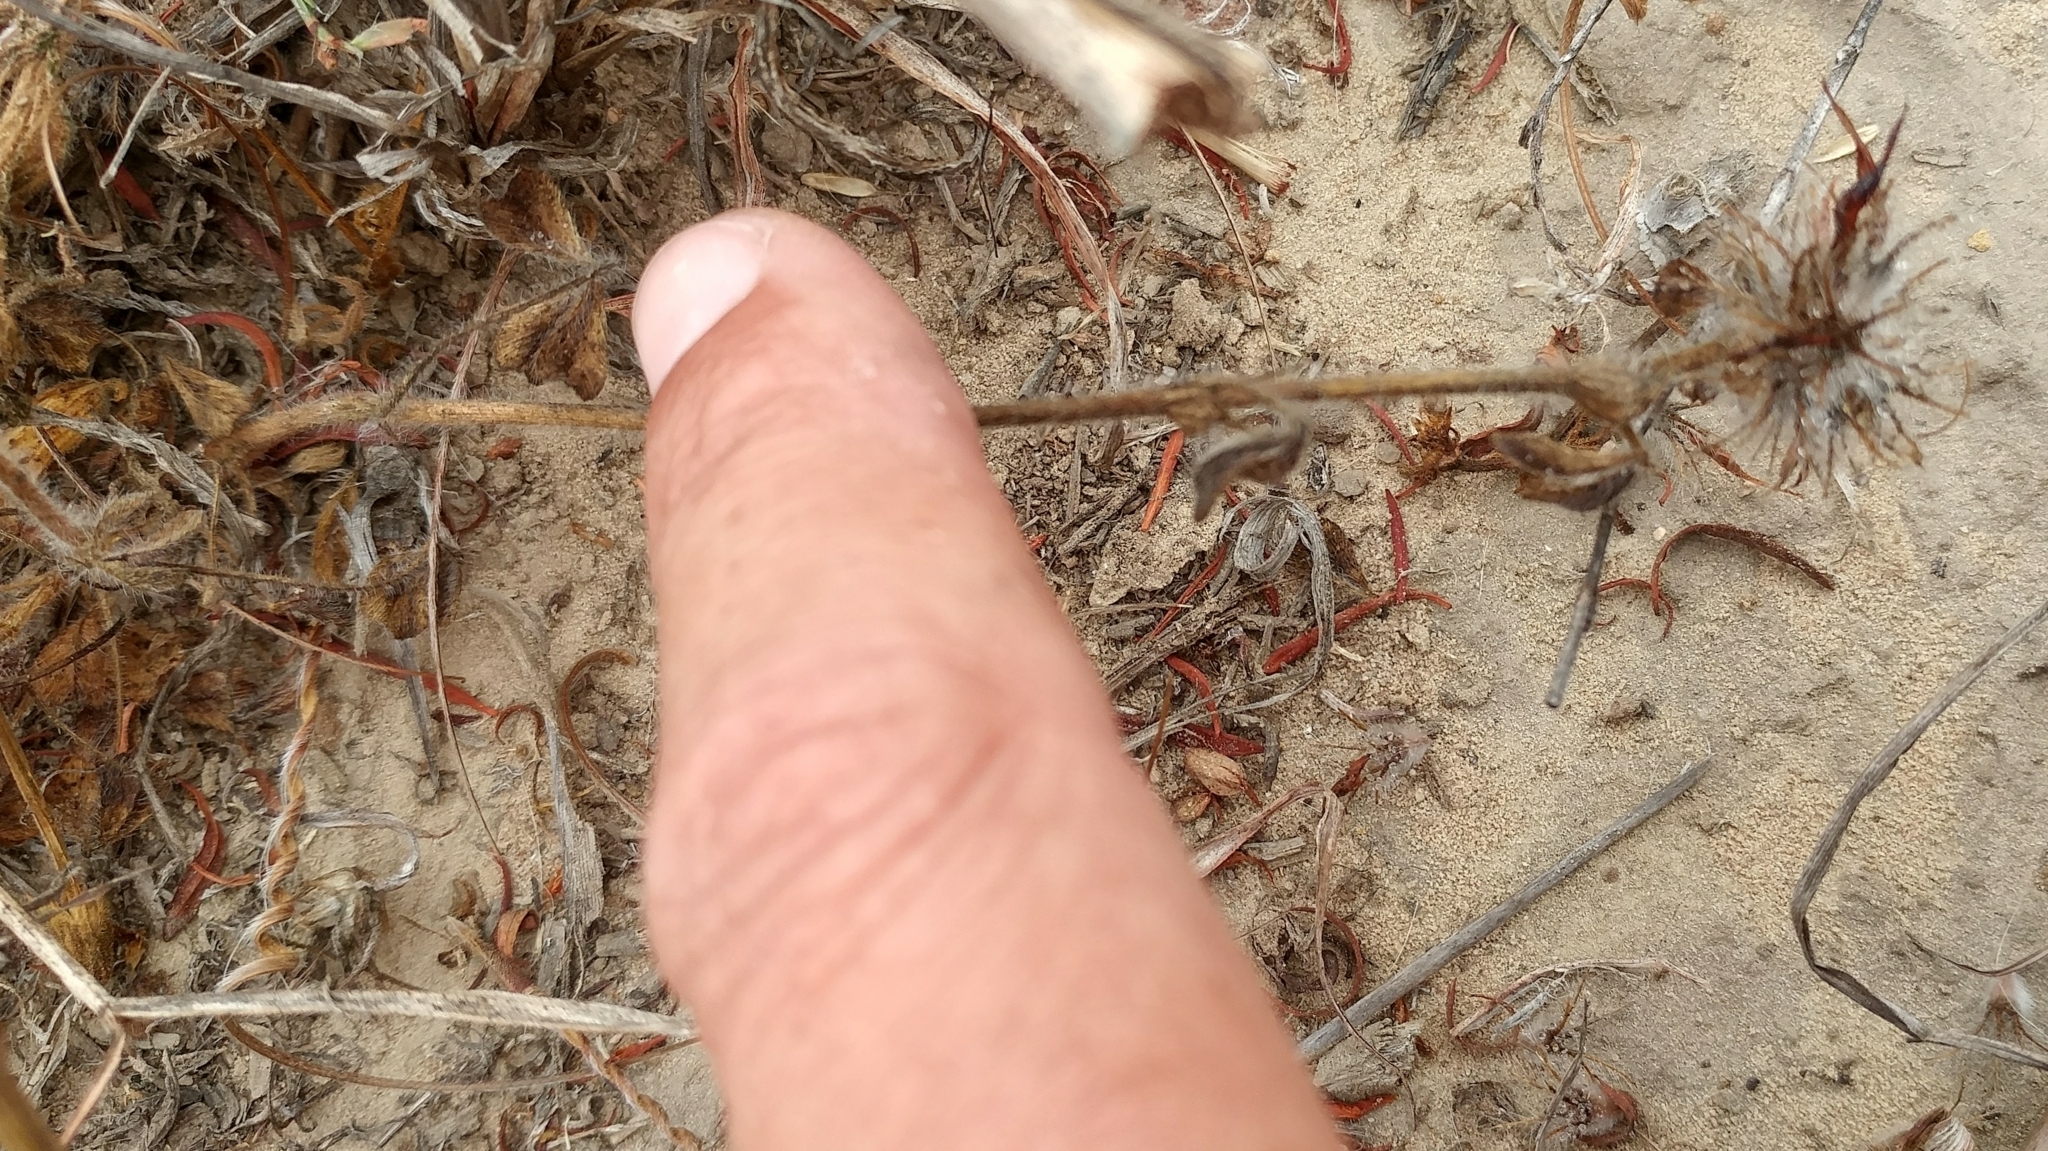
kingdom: Plantae
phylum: Tracheophyta
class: Magnoliopsida
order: Fabales
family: Fabaceae
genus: Trifolium
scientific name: Trifolium hirtum
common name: Rose clover
